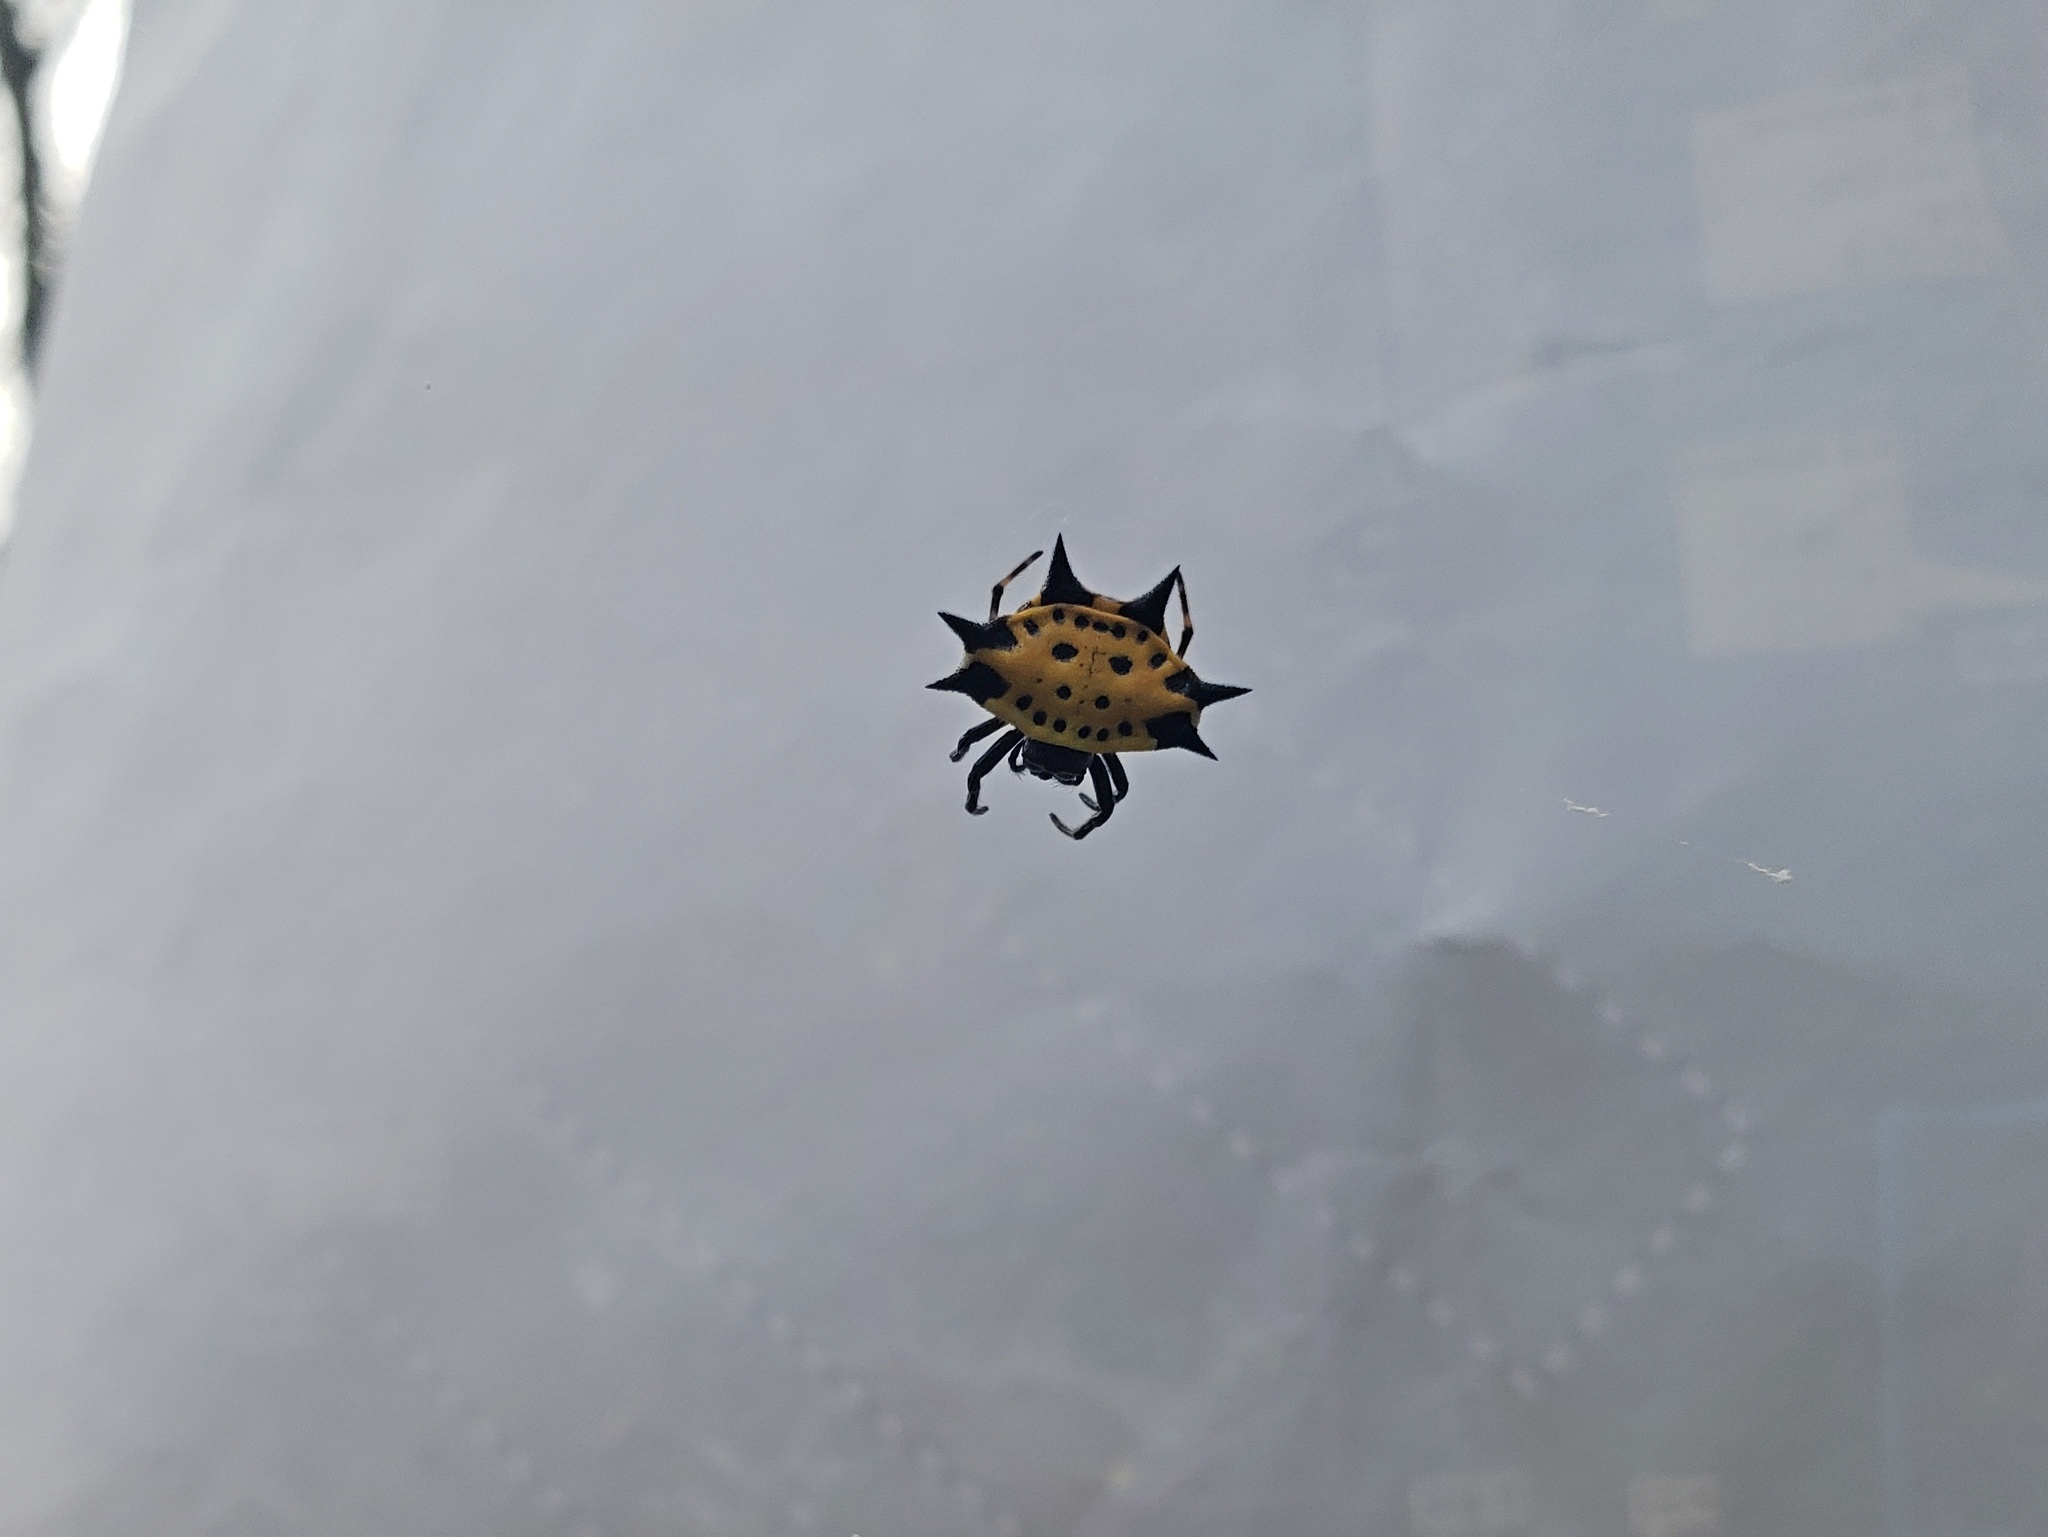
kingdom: Animalia
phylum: Arthropoda
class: Arachnida
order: Araneae
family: Araneidae
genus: Gasteracantha
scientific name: Gasteracantha cancriformis
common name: Orb weavers
